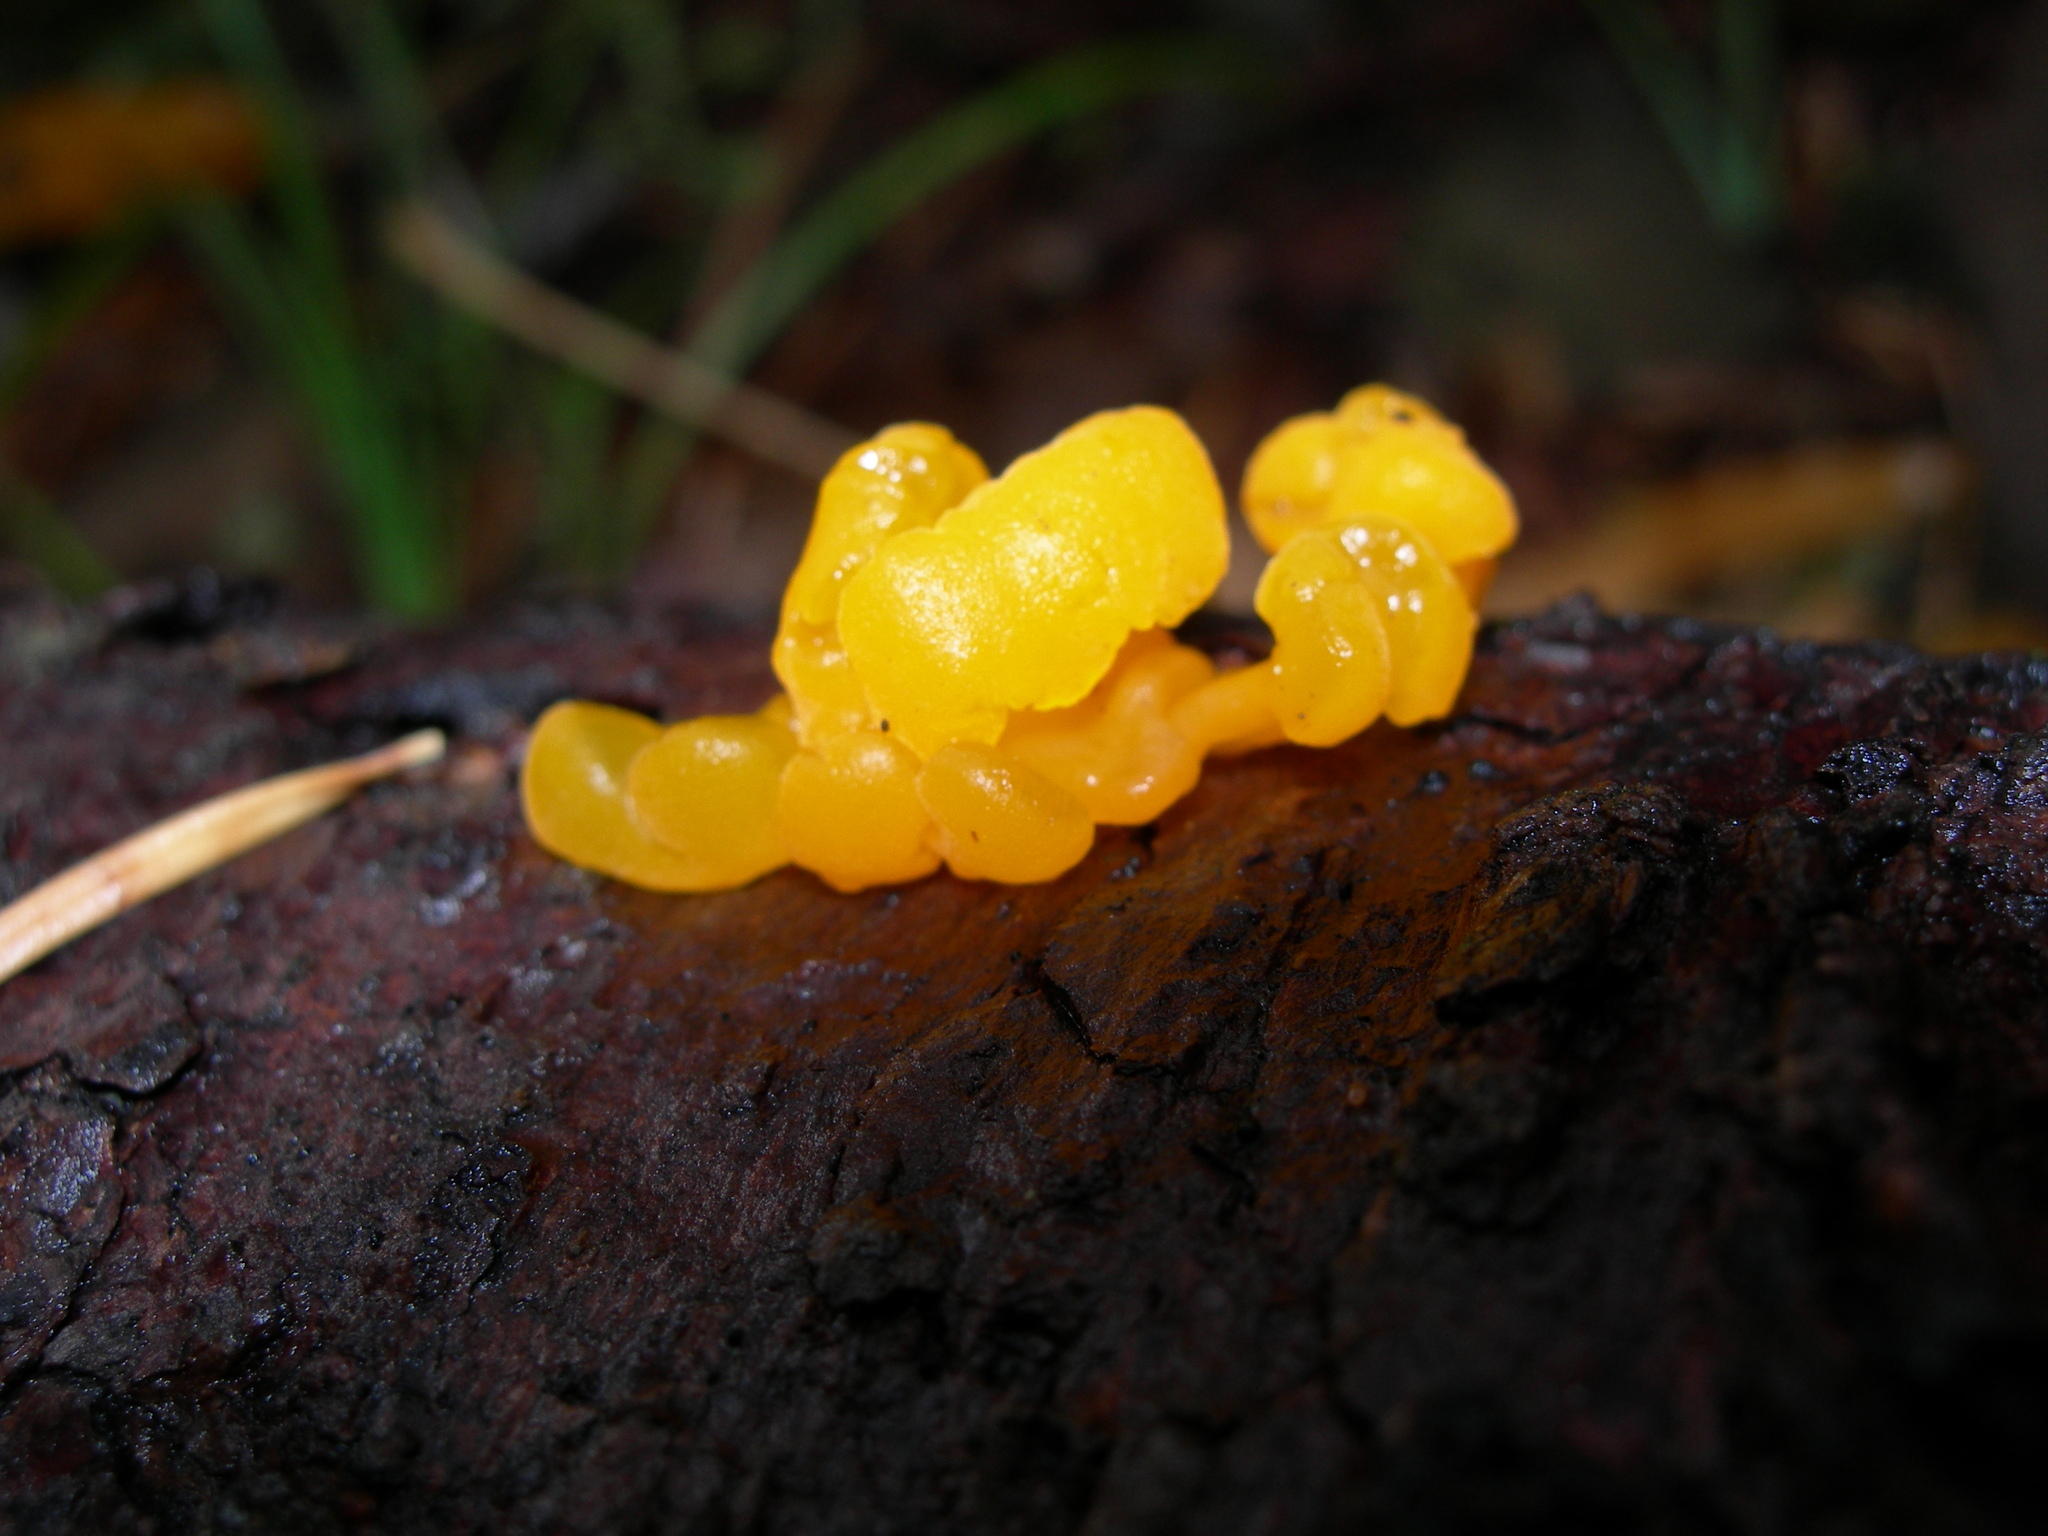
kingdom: Fungi
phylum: Basidiomycota
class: Dacrymycetes
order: Dacrymycetales
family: Dacrymycetaceae
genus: Dacrymyces
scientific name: Dacrymyces chrysospermus
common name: Orange jelly spot
